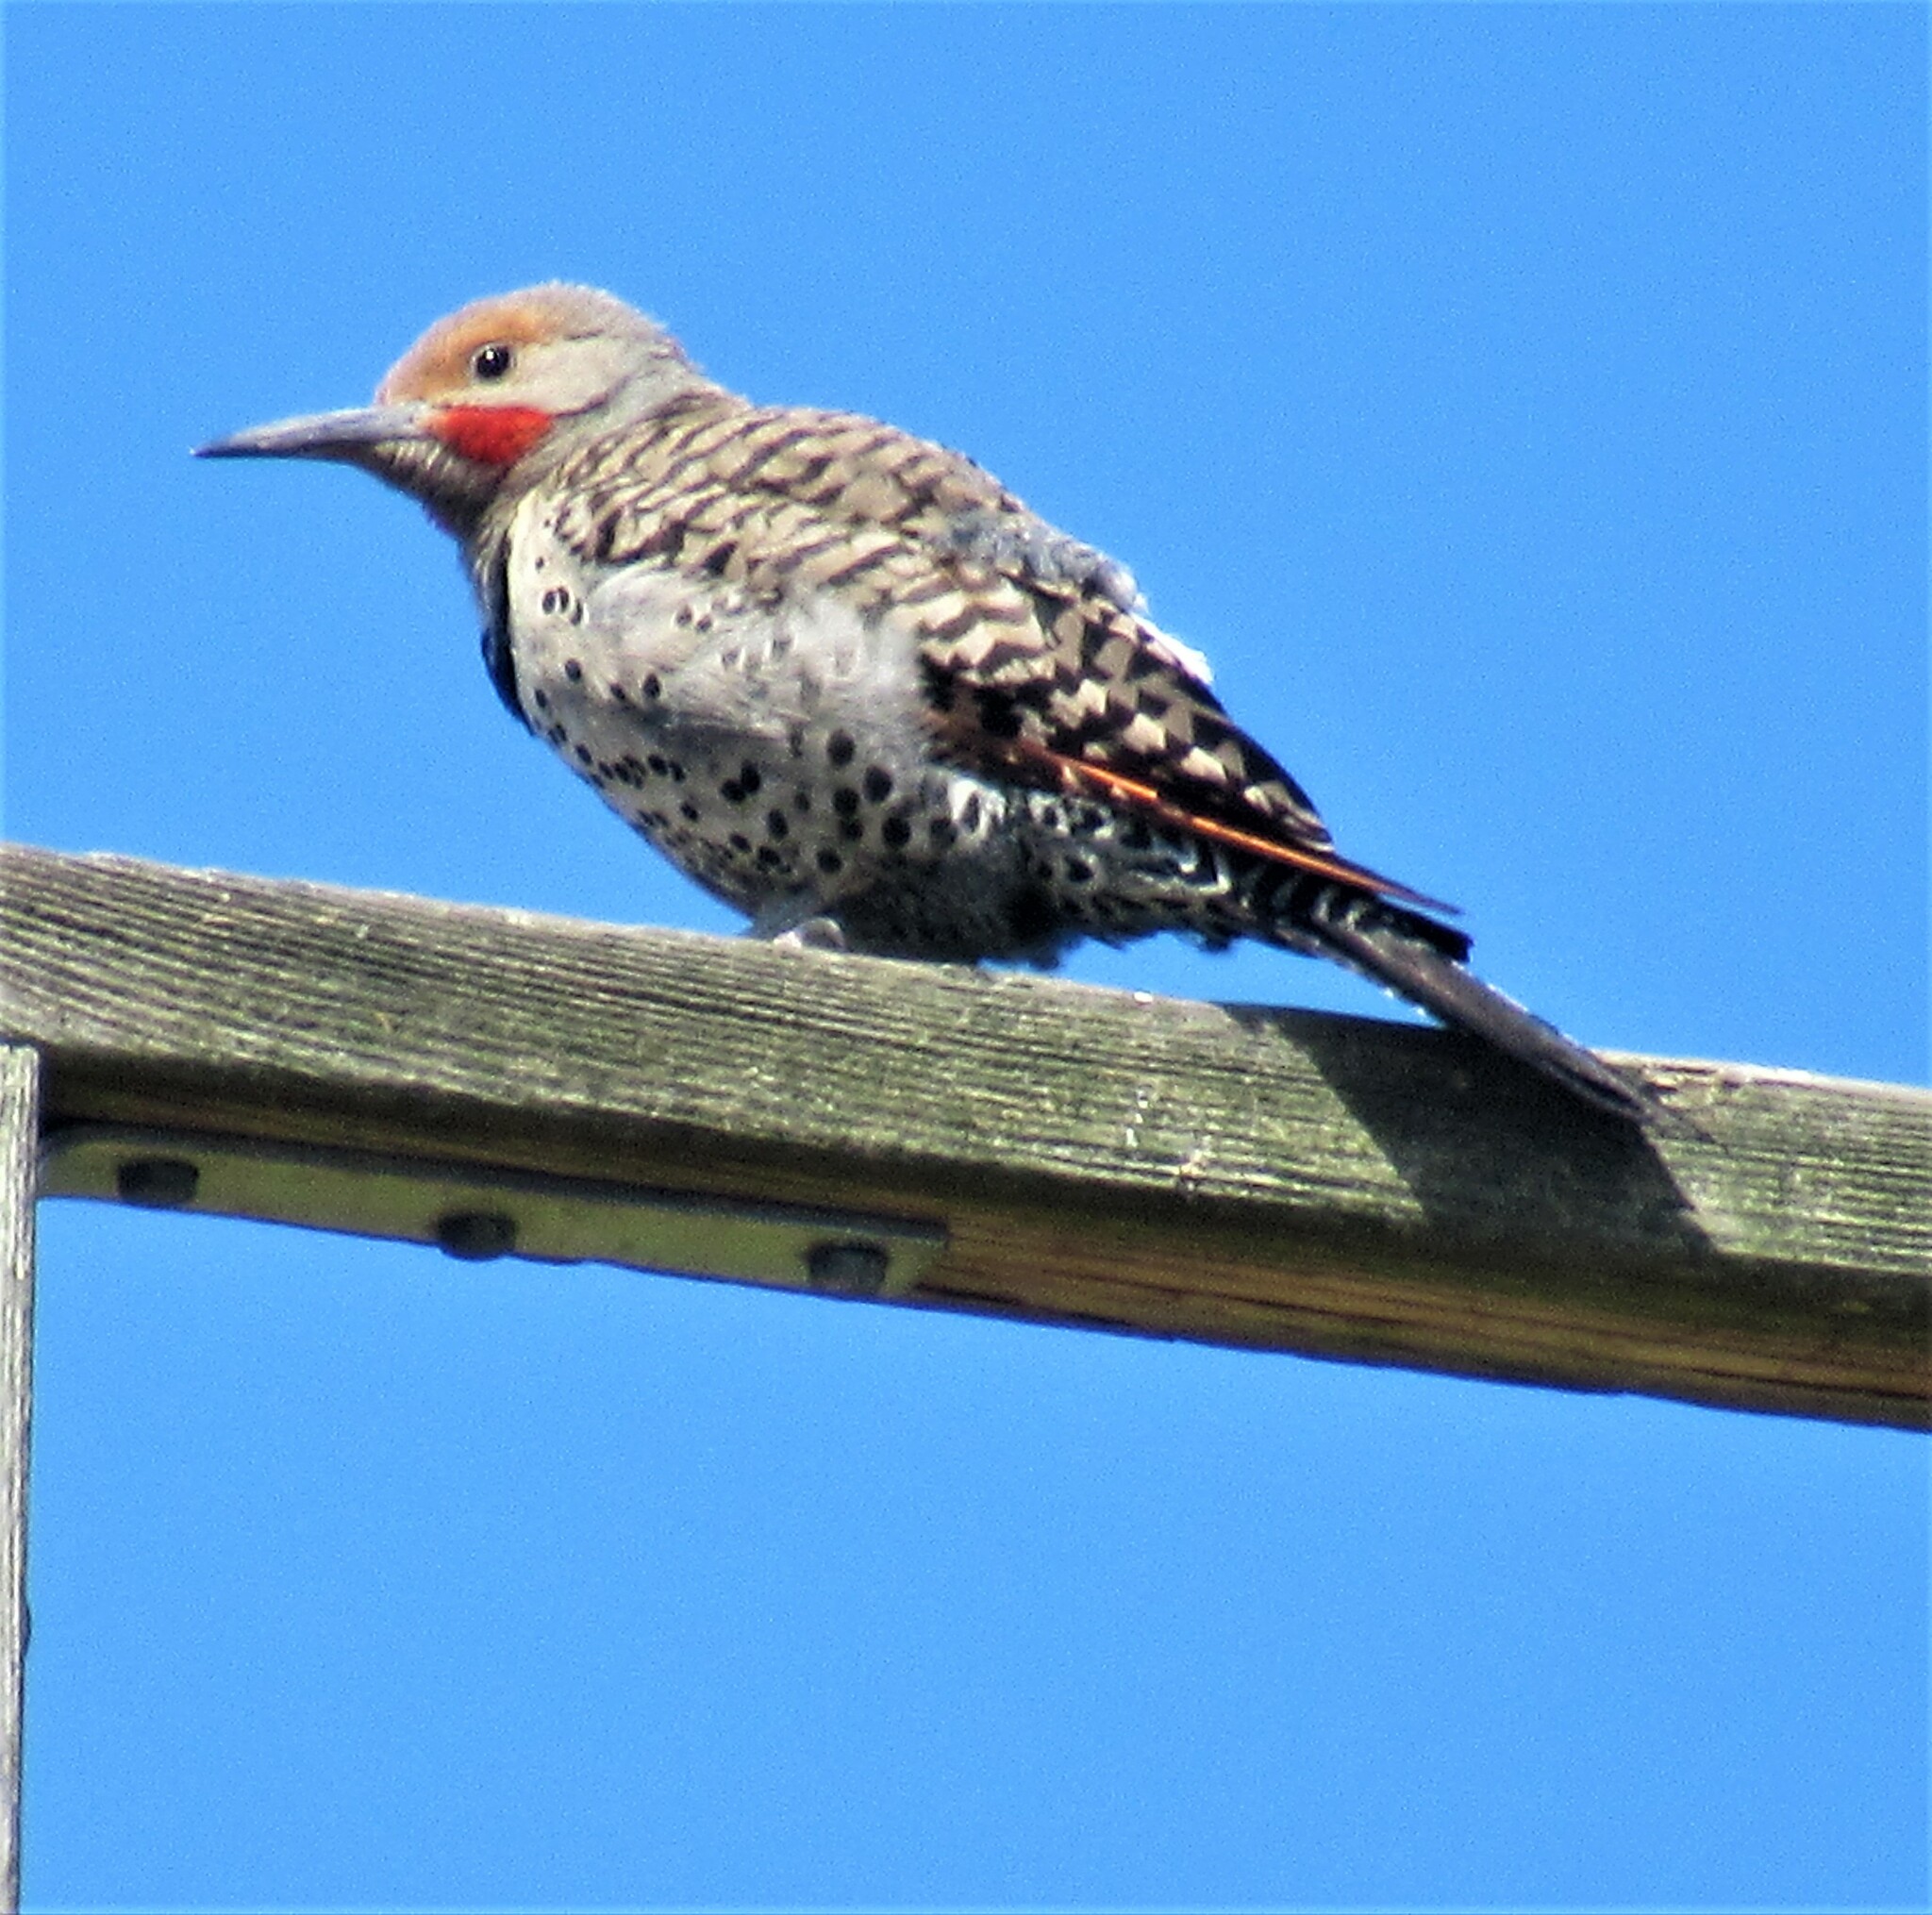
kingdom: Animalia
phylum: Chordata
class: Aves
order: Piciformes
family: Picidae
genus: Colaptes
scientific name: Colaptes auratus
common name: Northern flicker
